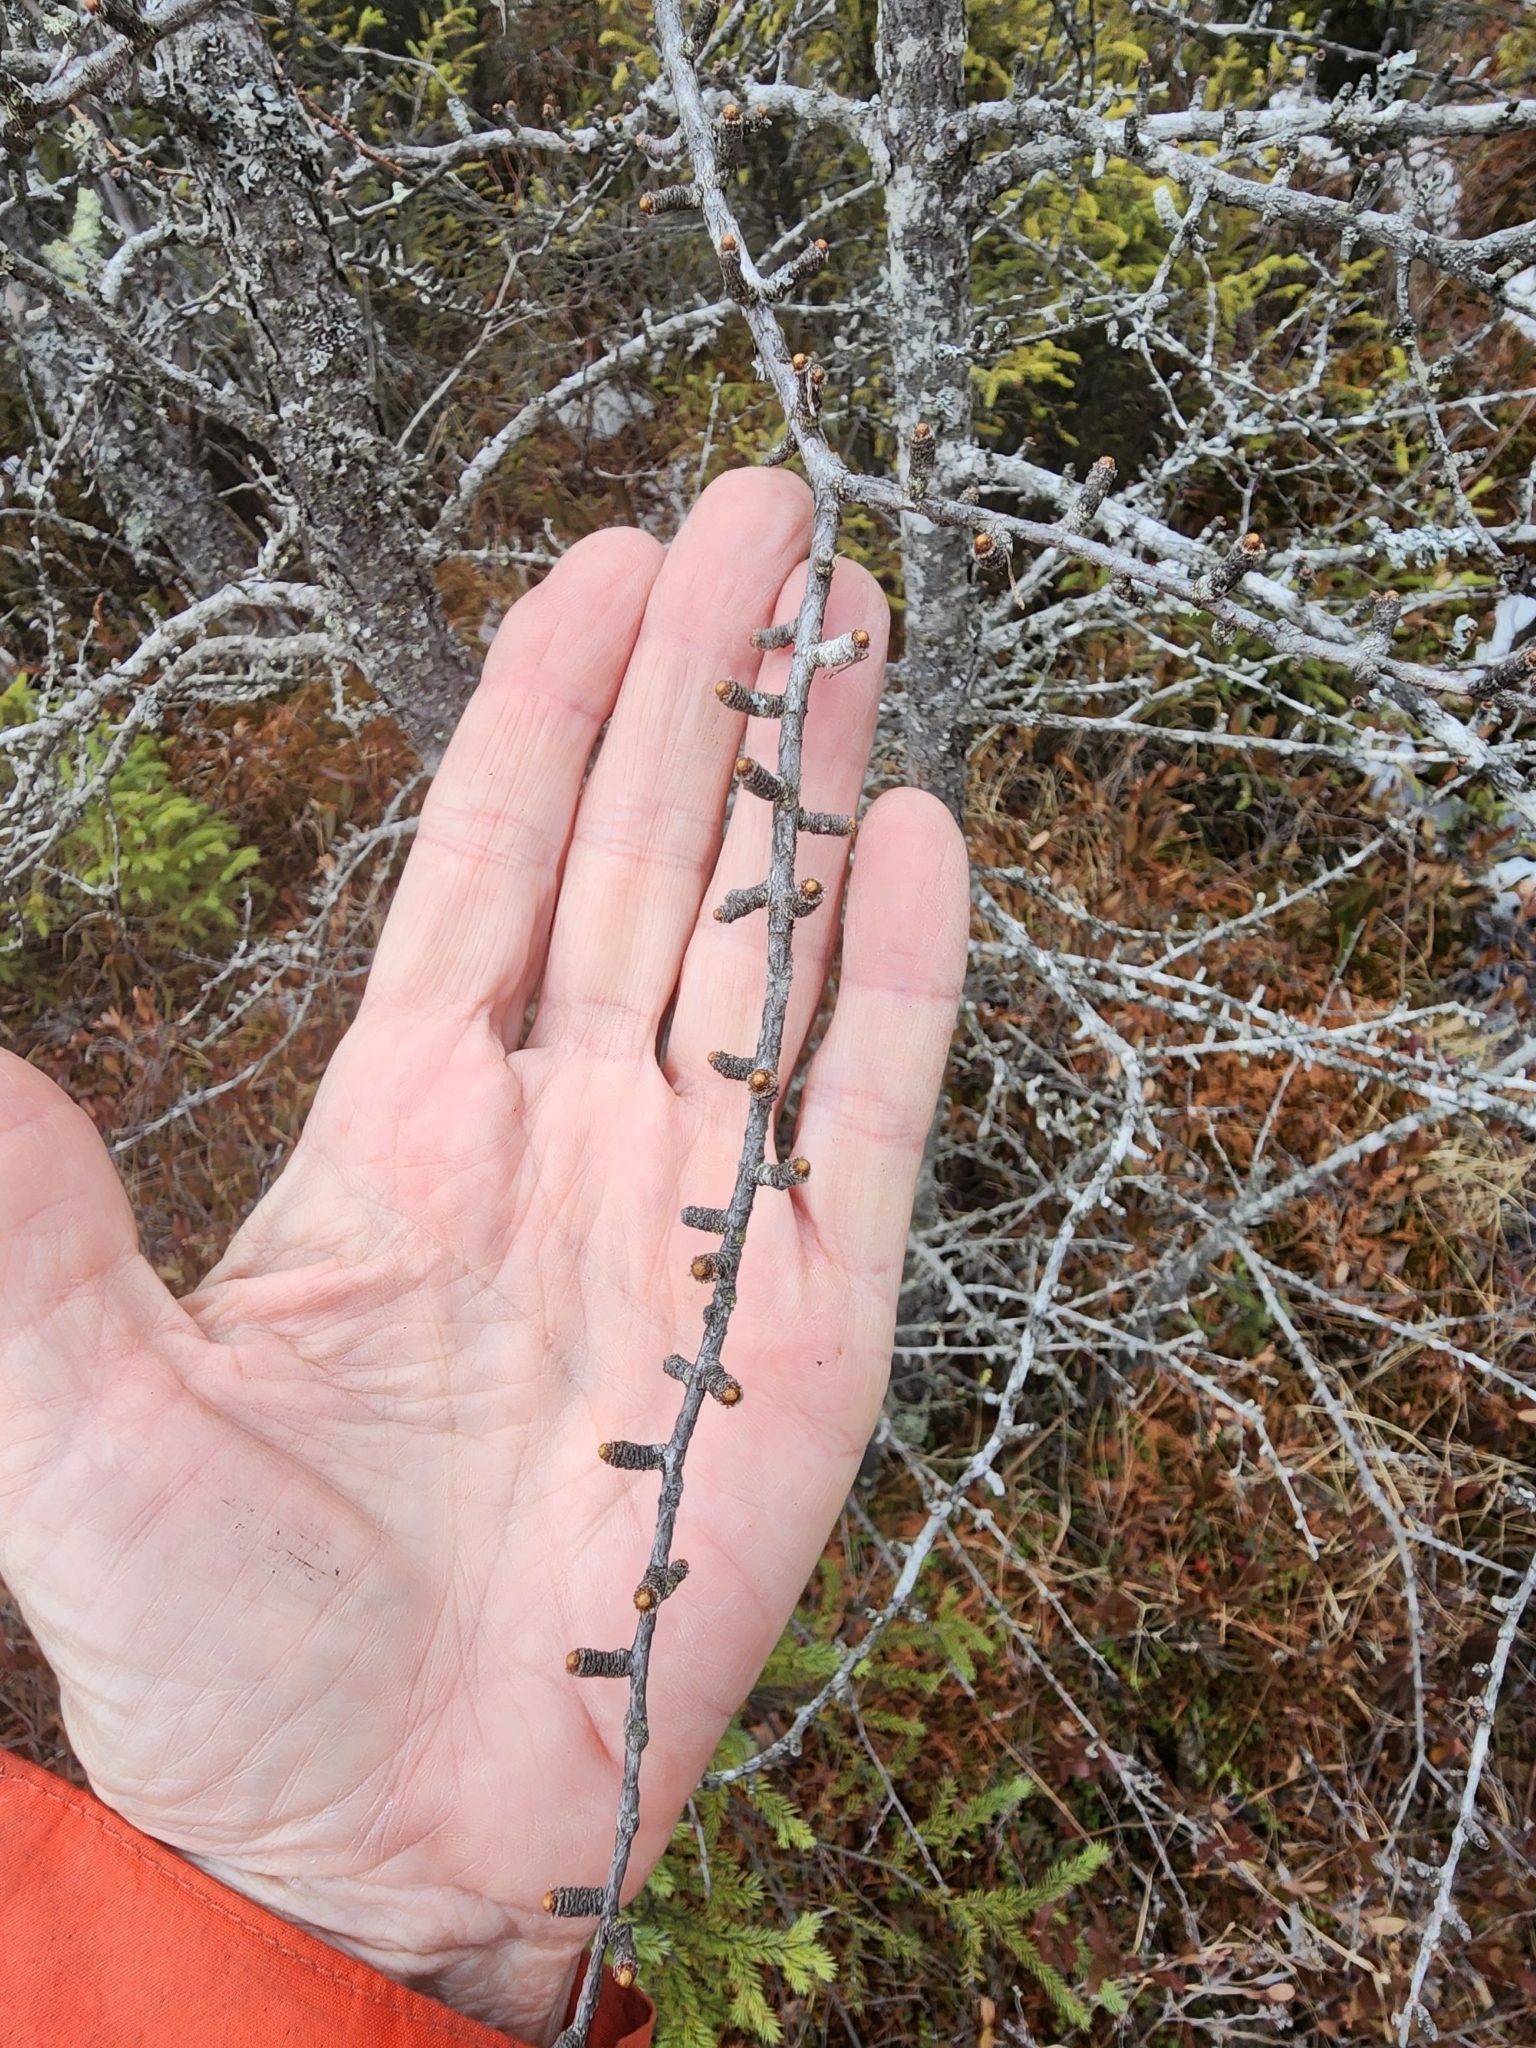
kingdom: Plantae
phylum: Tracheophyta
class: Pinopsida
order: Pinales
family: Pinaceae
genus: Larix
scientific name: Larix laricina
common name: American larch
